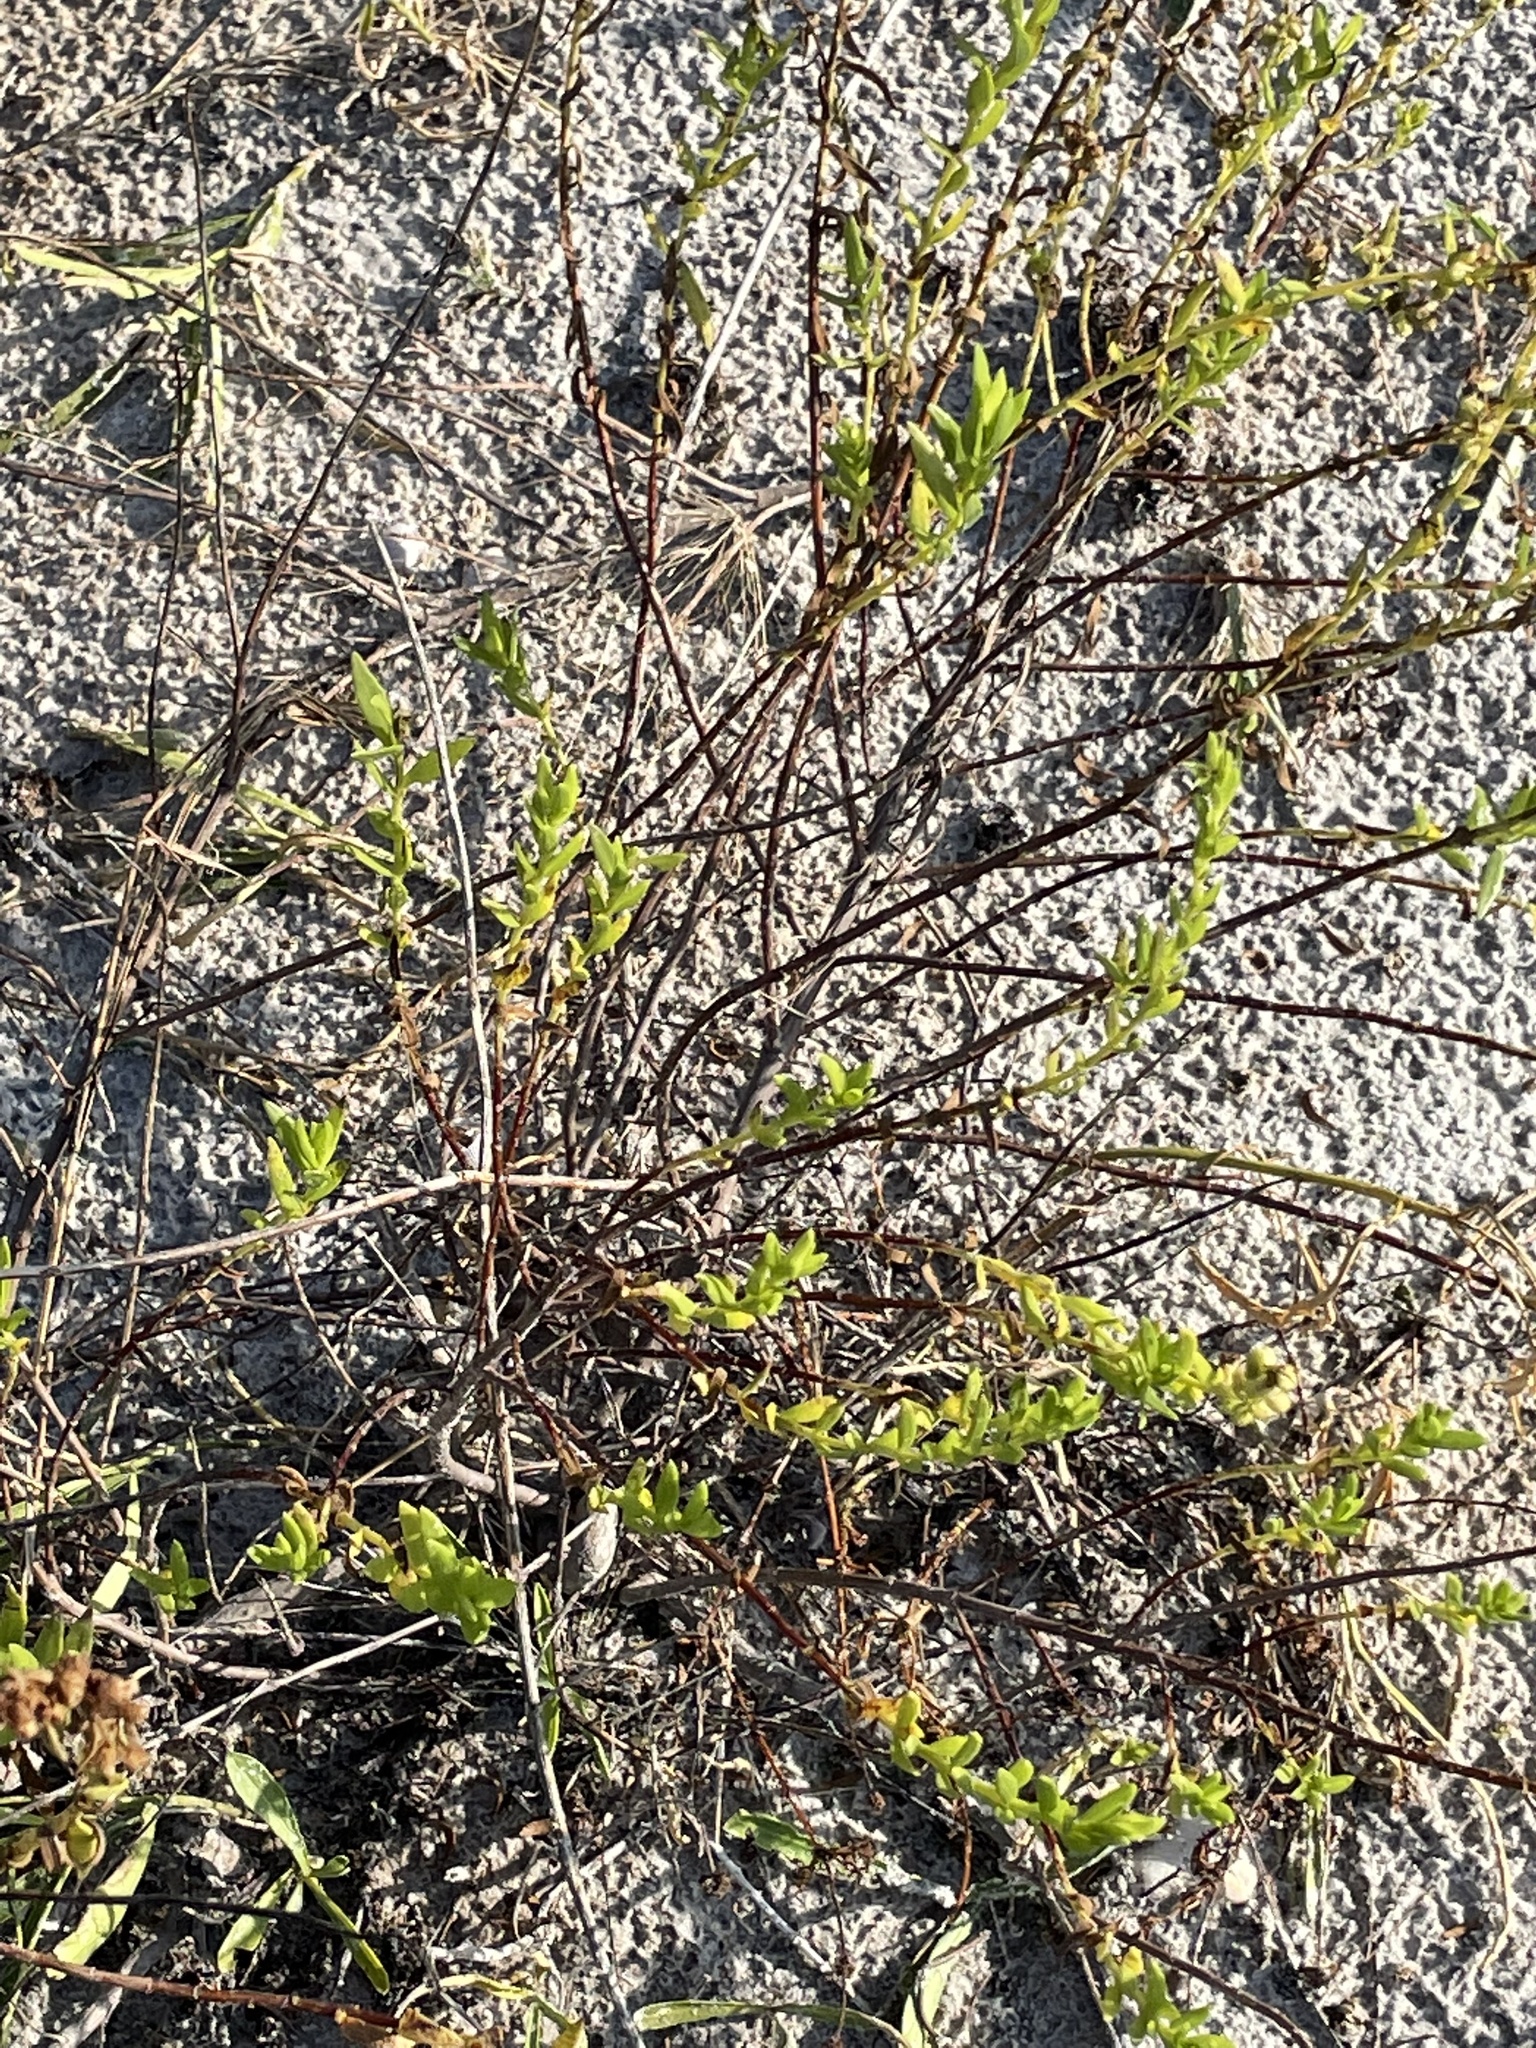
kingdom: Plantae
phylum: Tracheophyta
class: Magnoliopsida
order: Asterales
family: Asteraceae
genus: Iva
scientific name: Iva imbricata
